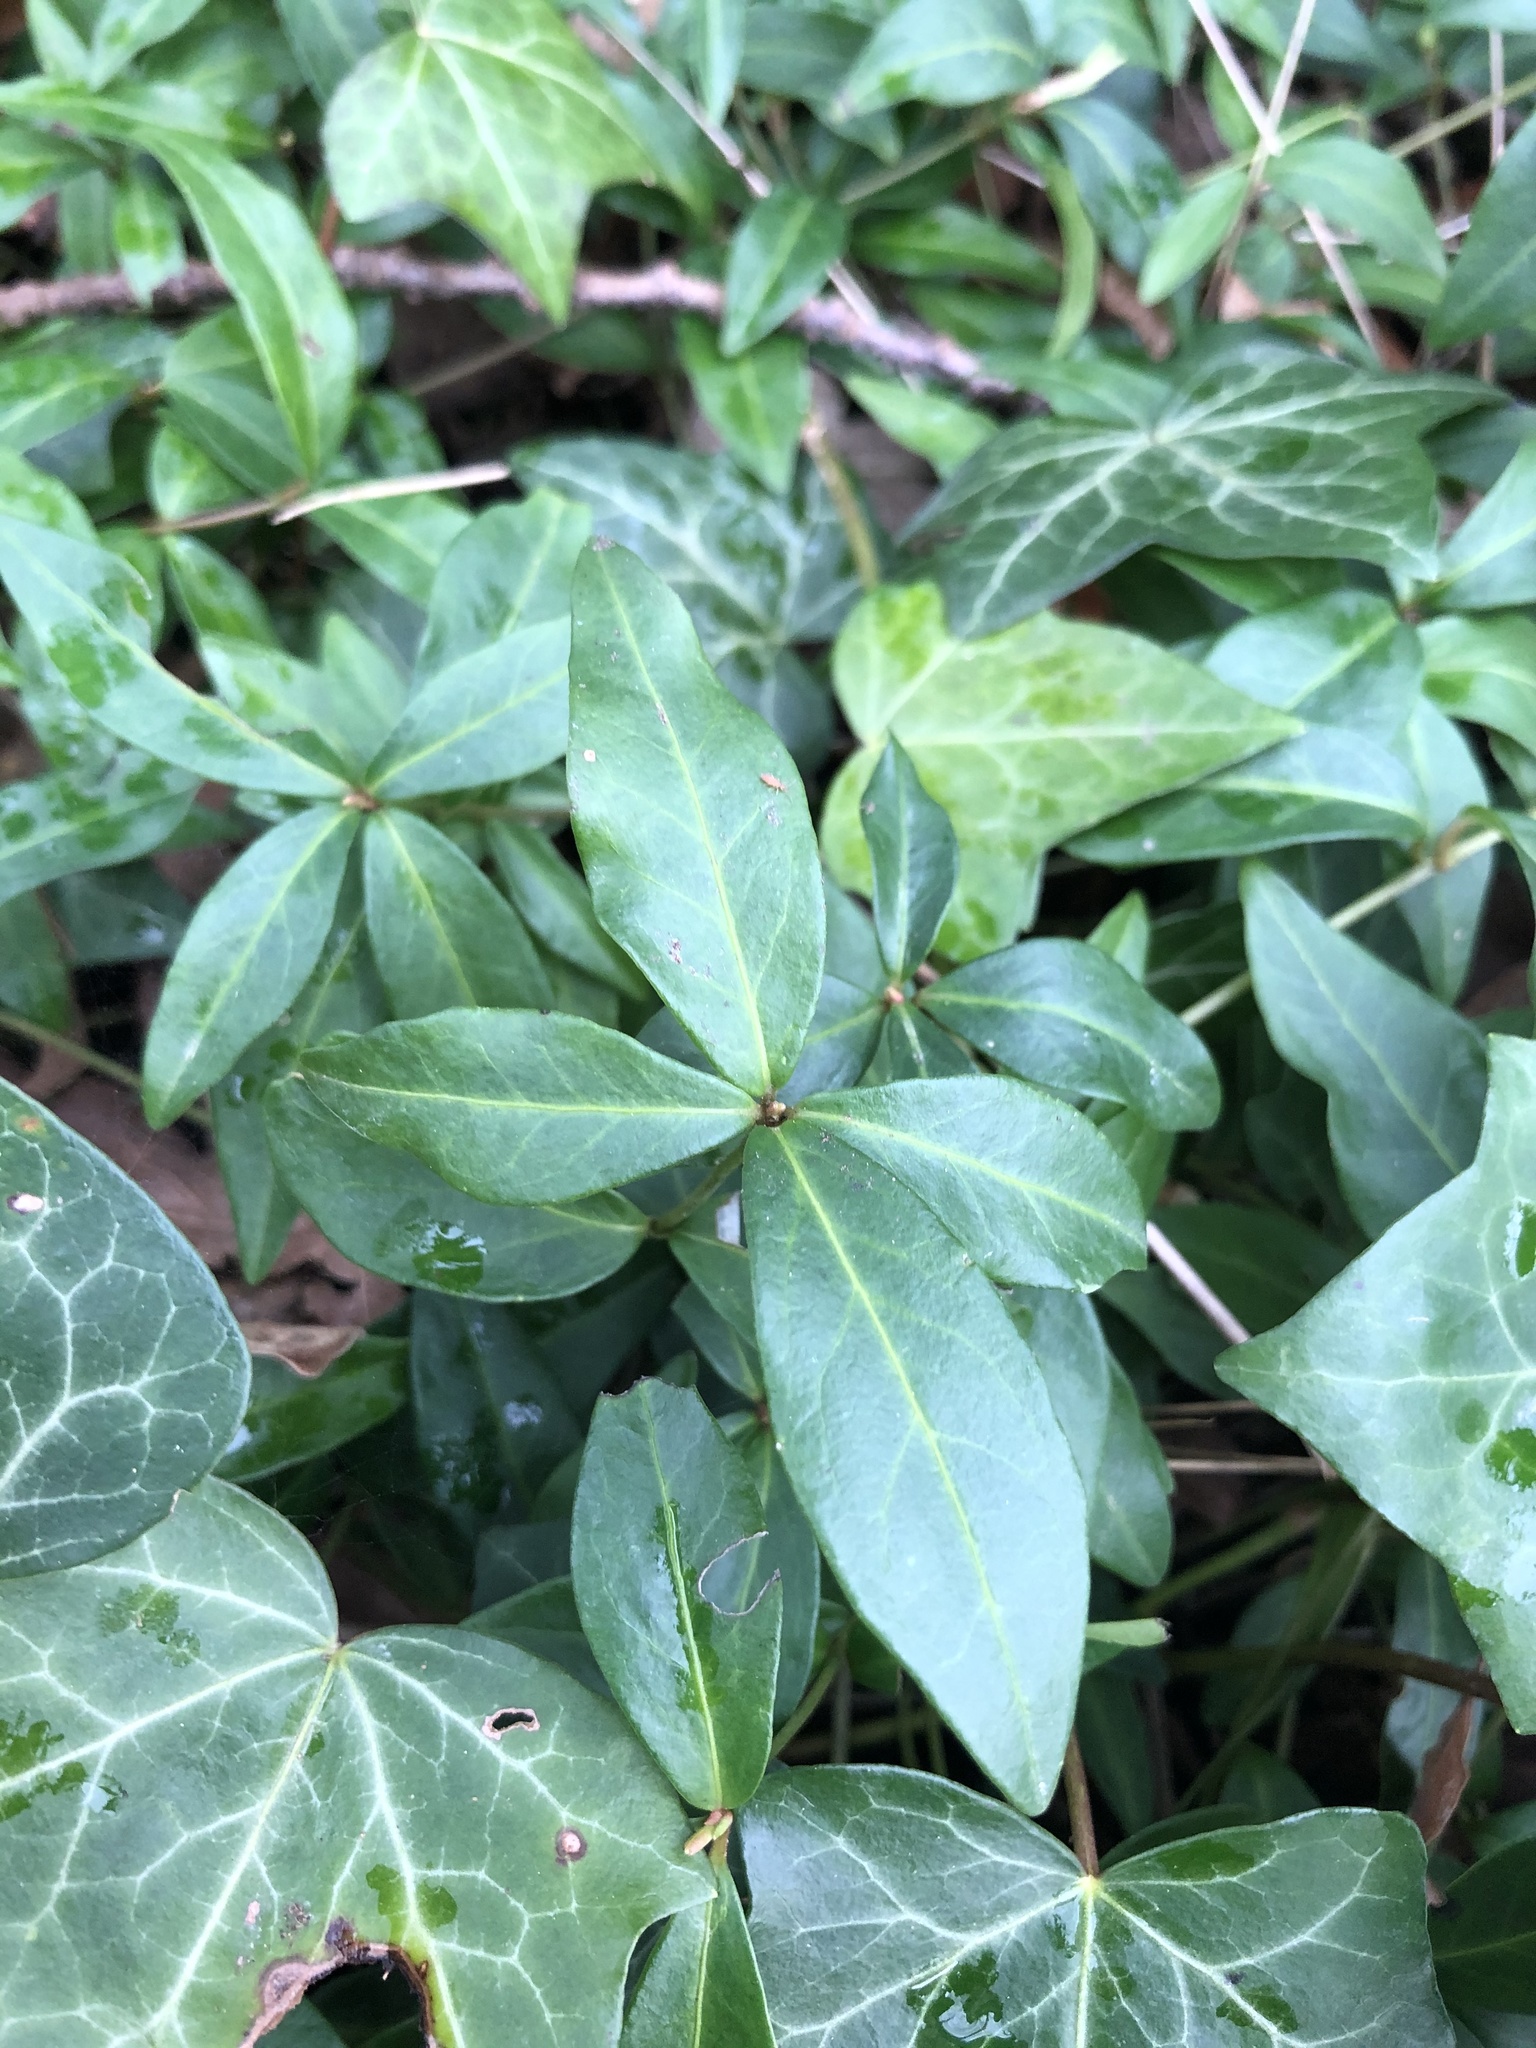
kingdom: Plantae
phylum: Tracheophyta
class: Magnoliopsida
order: Gentianales
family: Apocynaceae
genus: Vinca
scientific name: Vinca minor
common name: Lesser periwinkle
